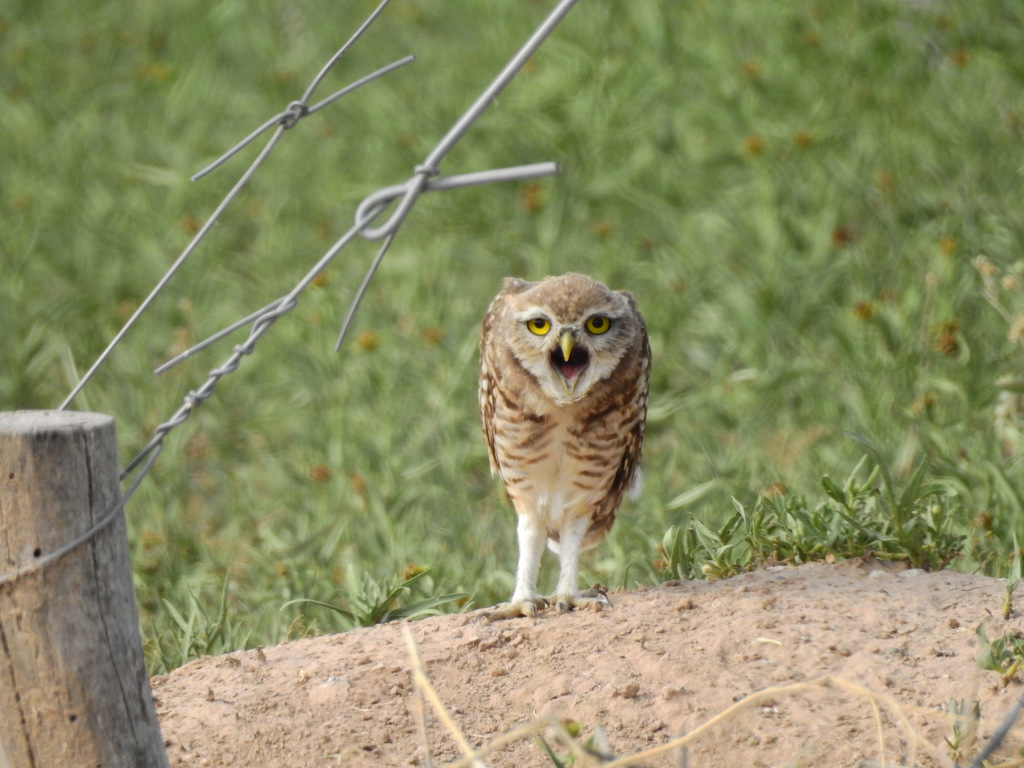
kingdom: Animalia
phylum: Chordata
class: Aves
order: Strigiformes
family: Strigidae
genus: Athene
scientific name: Athene cunicularia
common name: Burrowing owl
